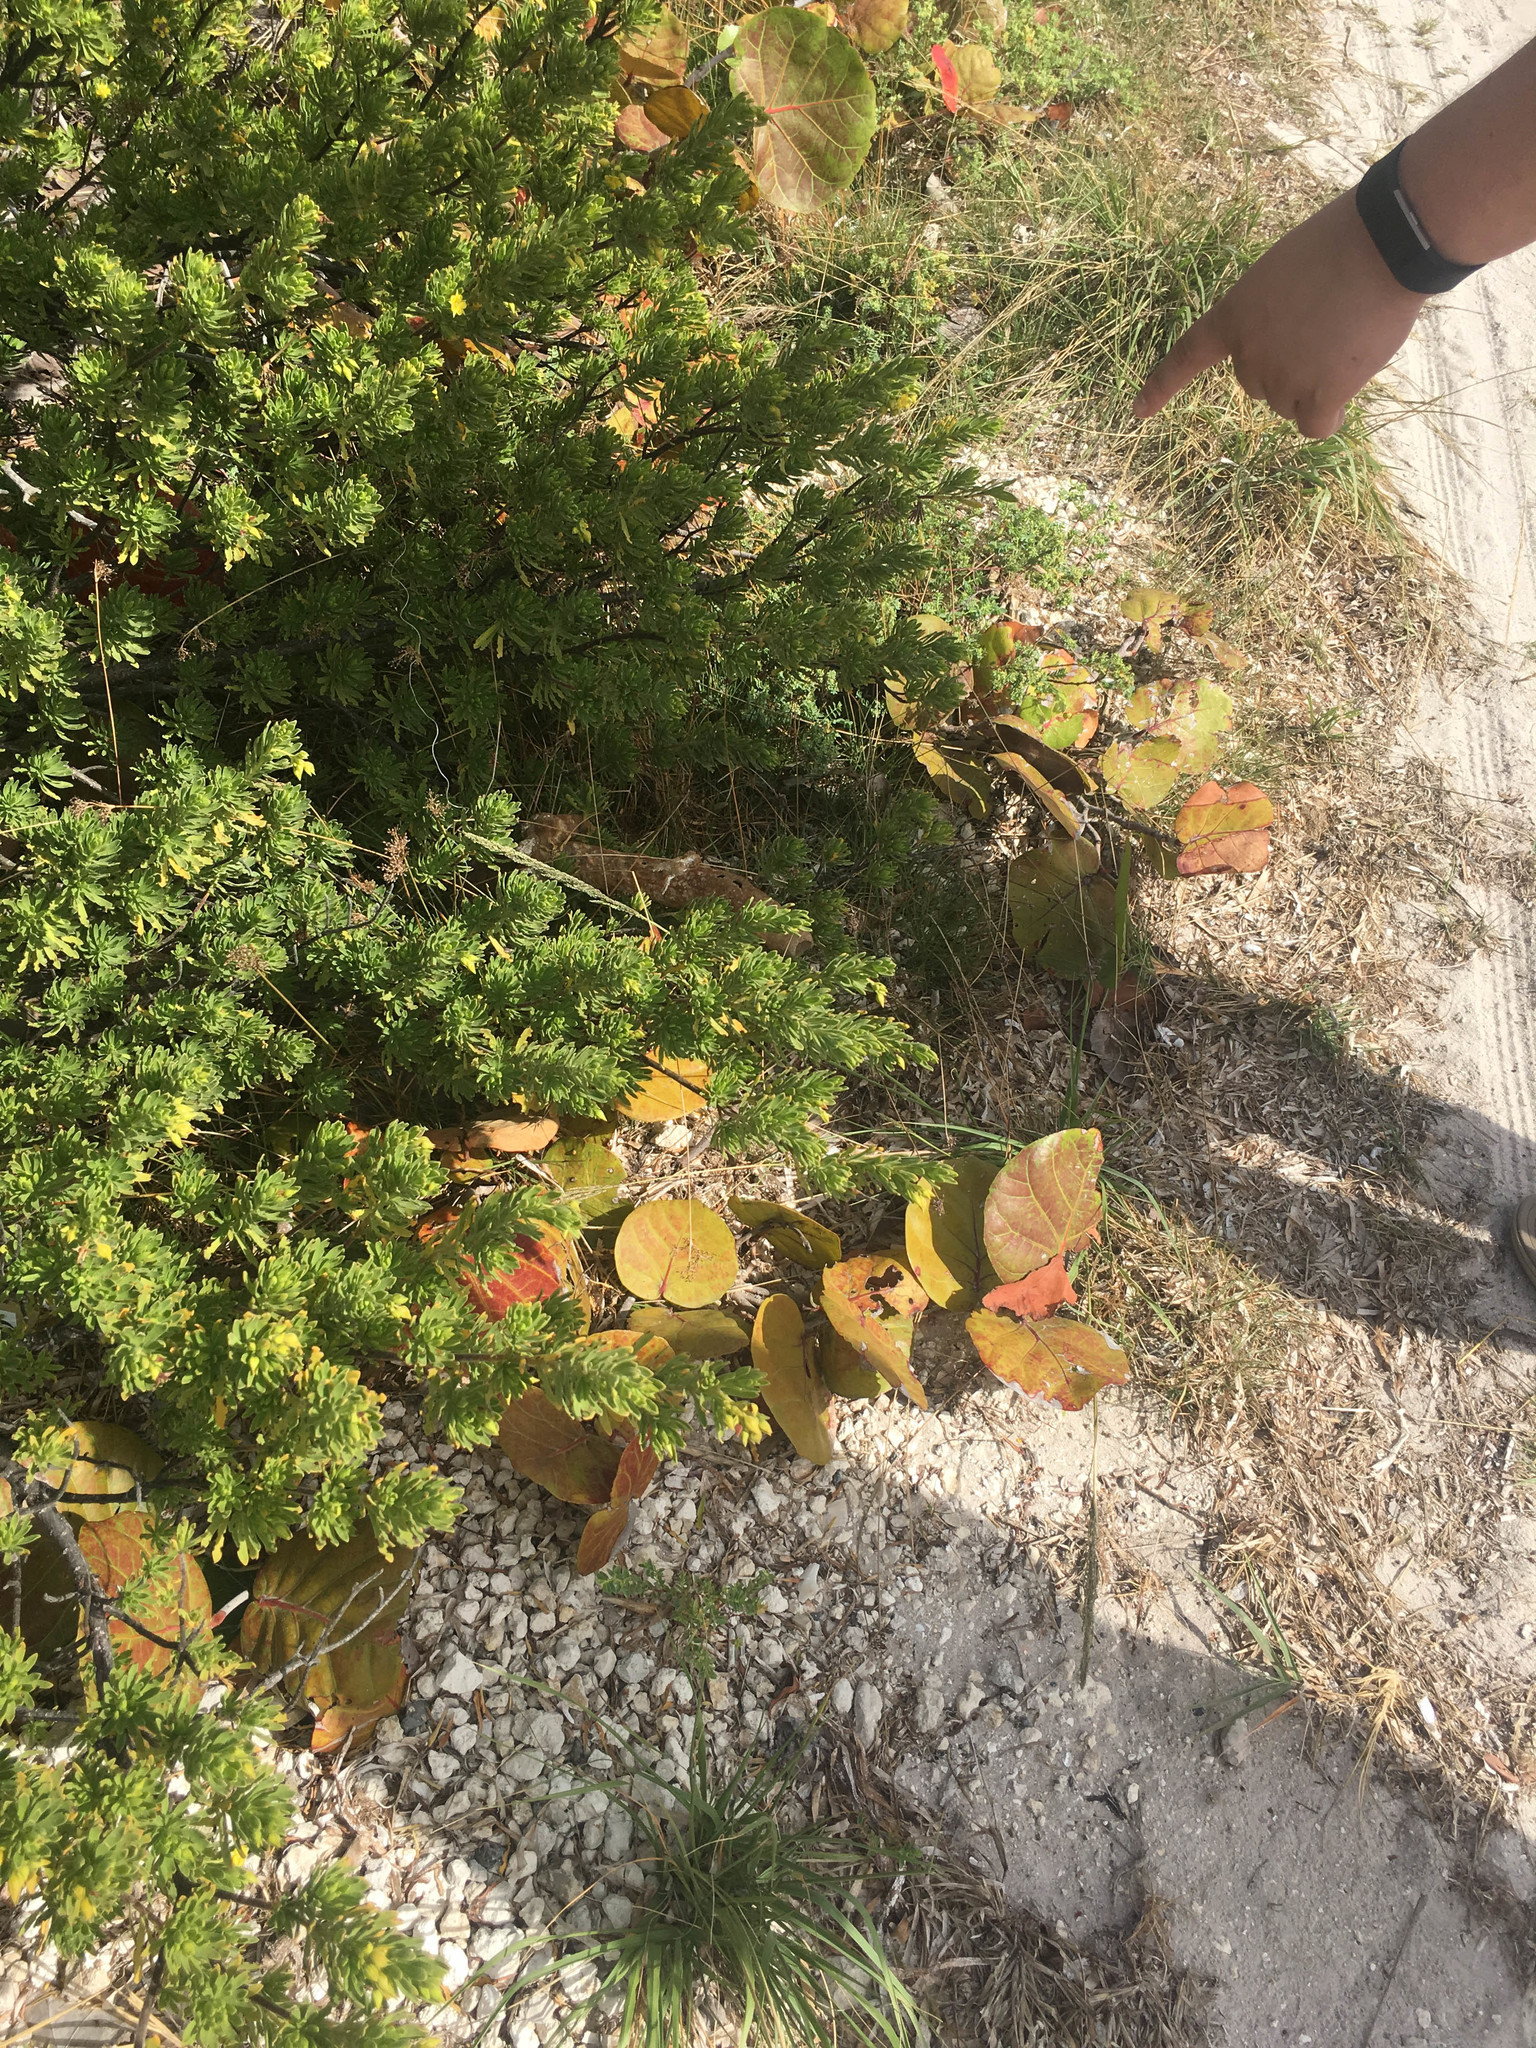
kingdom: Plantae
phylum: Tracheophyta
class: Magnoliopsida
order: Fabales
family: Surianaceae
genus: Suriana
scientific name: Suriana maritima
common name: Bay-cedar
